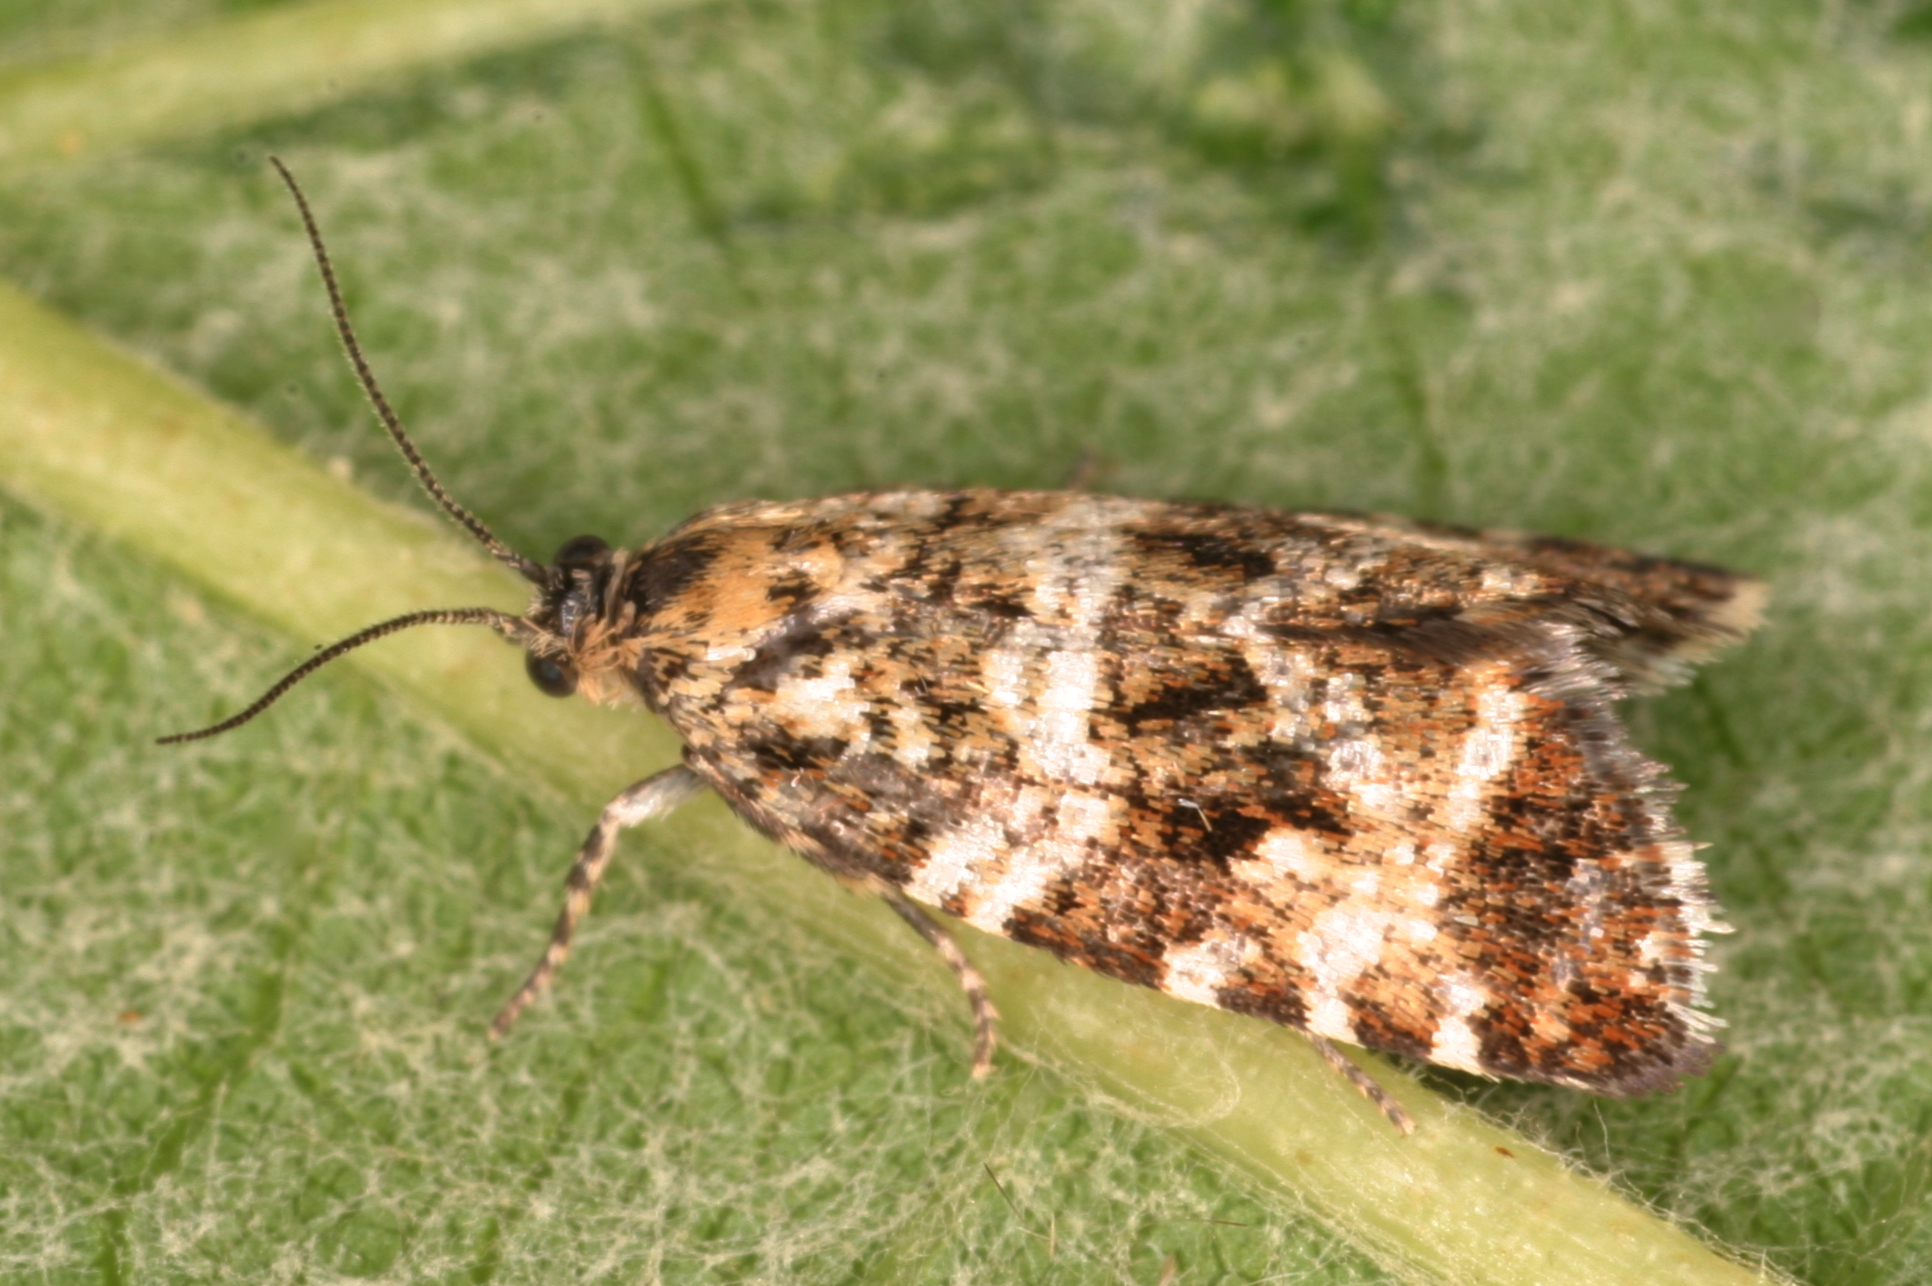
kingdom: Animalia
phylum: Arthropoda
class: Insecta
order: Lepidoptera
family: Tortricidae
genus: Olethreutes
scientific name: Olethreutes palustrana
